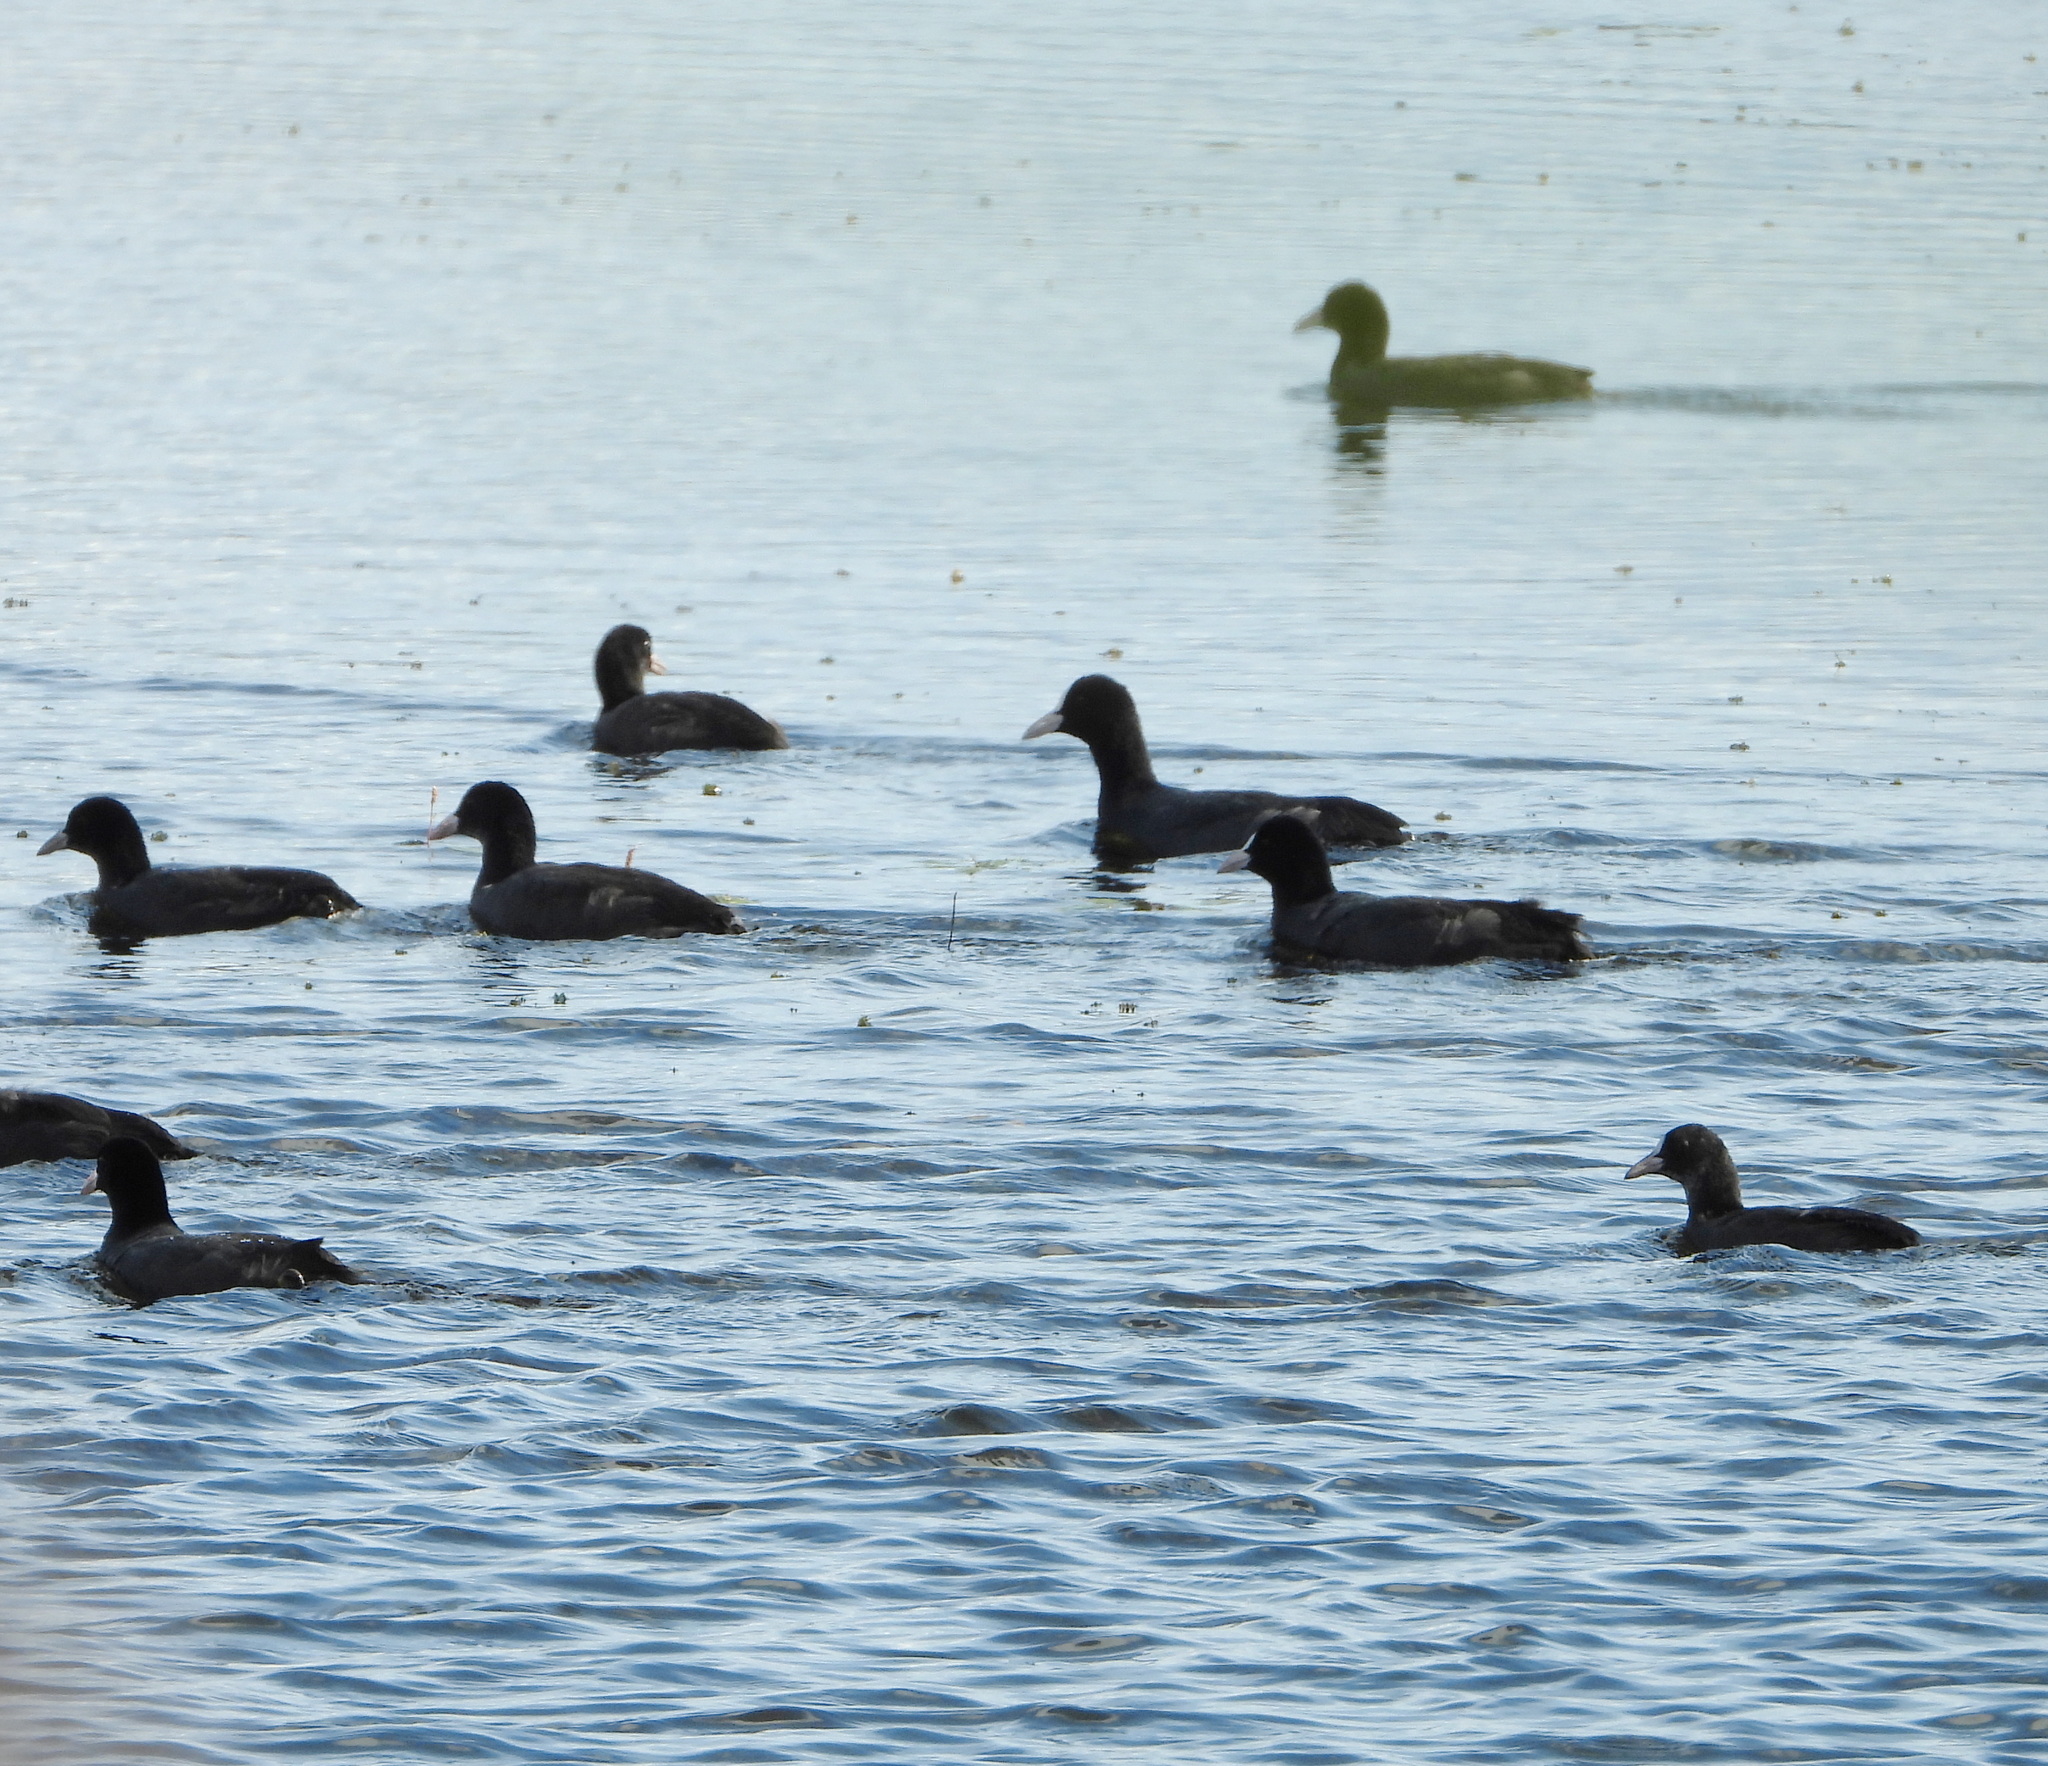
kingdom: Animalia
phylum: Chordata
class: Aves
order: Gruiformes
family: Rallidae
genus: Fulica
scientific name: Fulica atra
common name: Eurasian coot
